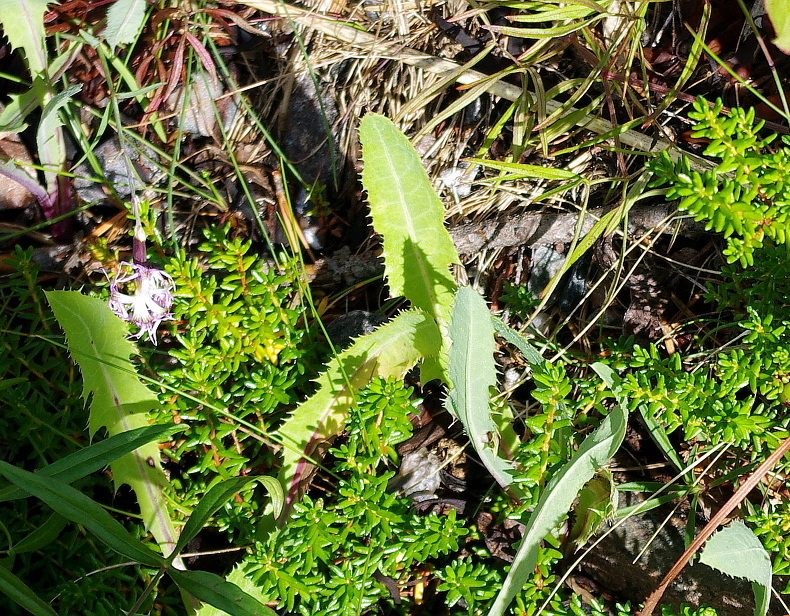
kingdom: Plantae
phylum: Tracheophyta
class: Magnoliopsida
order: Asterales
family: Asteraceae
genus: Sonchus
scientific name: Sonchus arvensis
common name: Perennial sow-thistle
